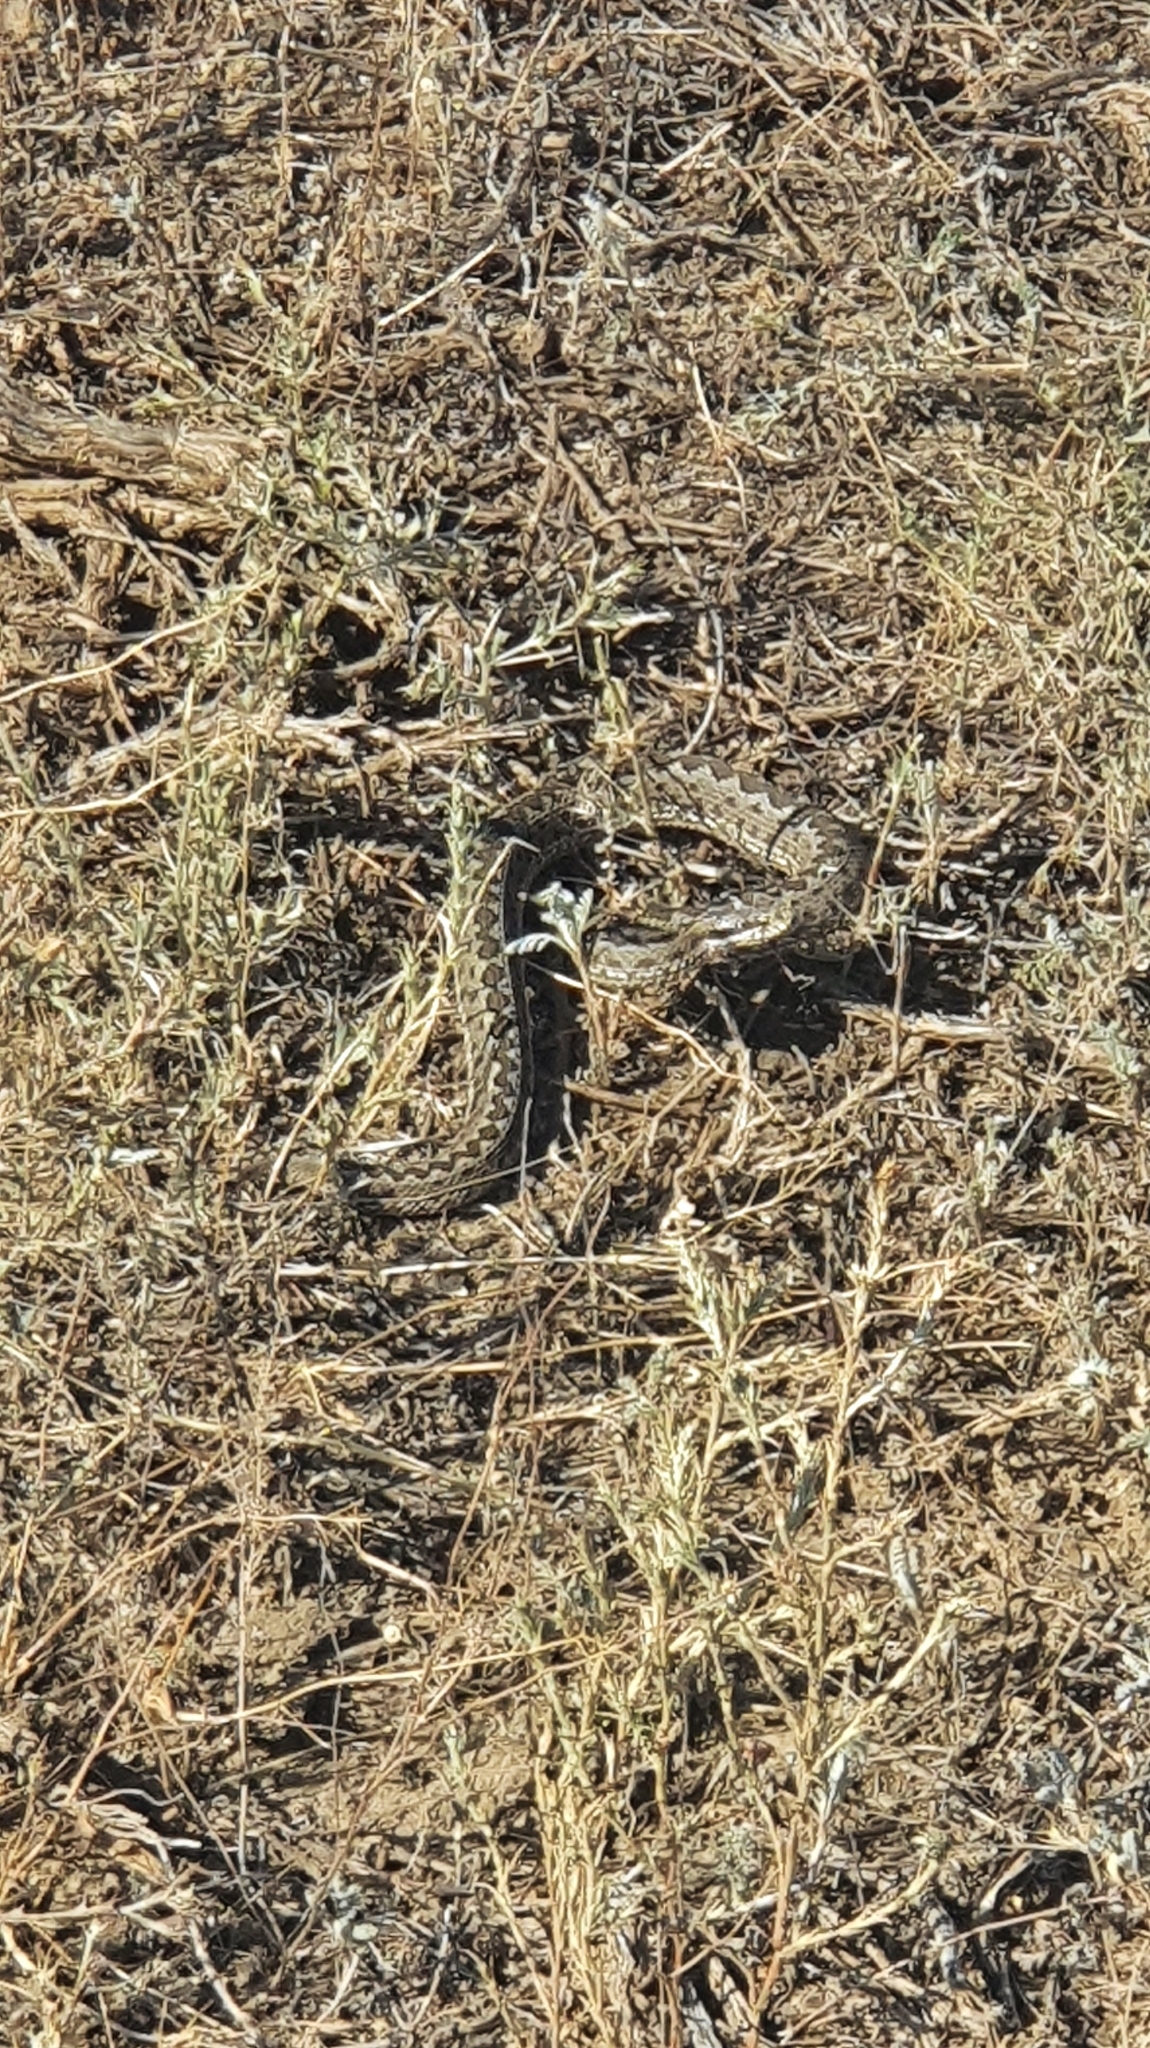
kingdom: Animalia
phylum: Chordata
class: Squamata
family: Viperidae
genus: Vipera
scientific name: Vipera renardi
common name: Eastern steppe viper
